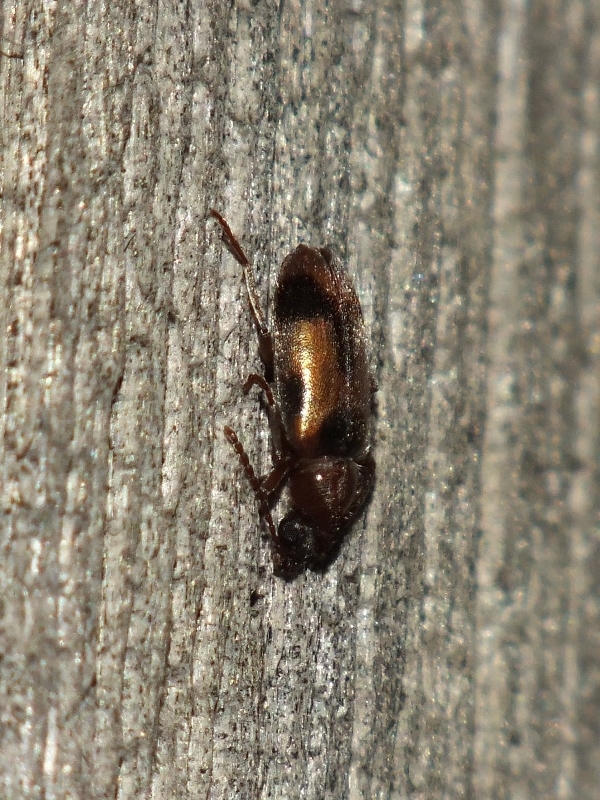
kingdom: Animalia
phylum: Arthropoda
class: Insecta
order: Coleoptera
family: Anthicidae
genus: Notoxus
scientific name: Notoxus monoceros
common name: Monoceros beetle
